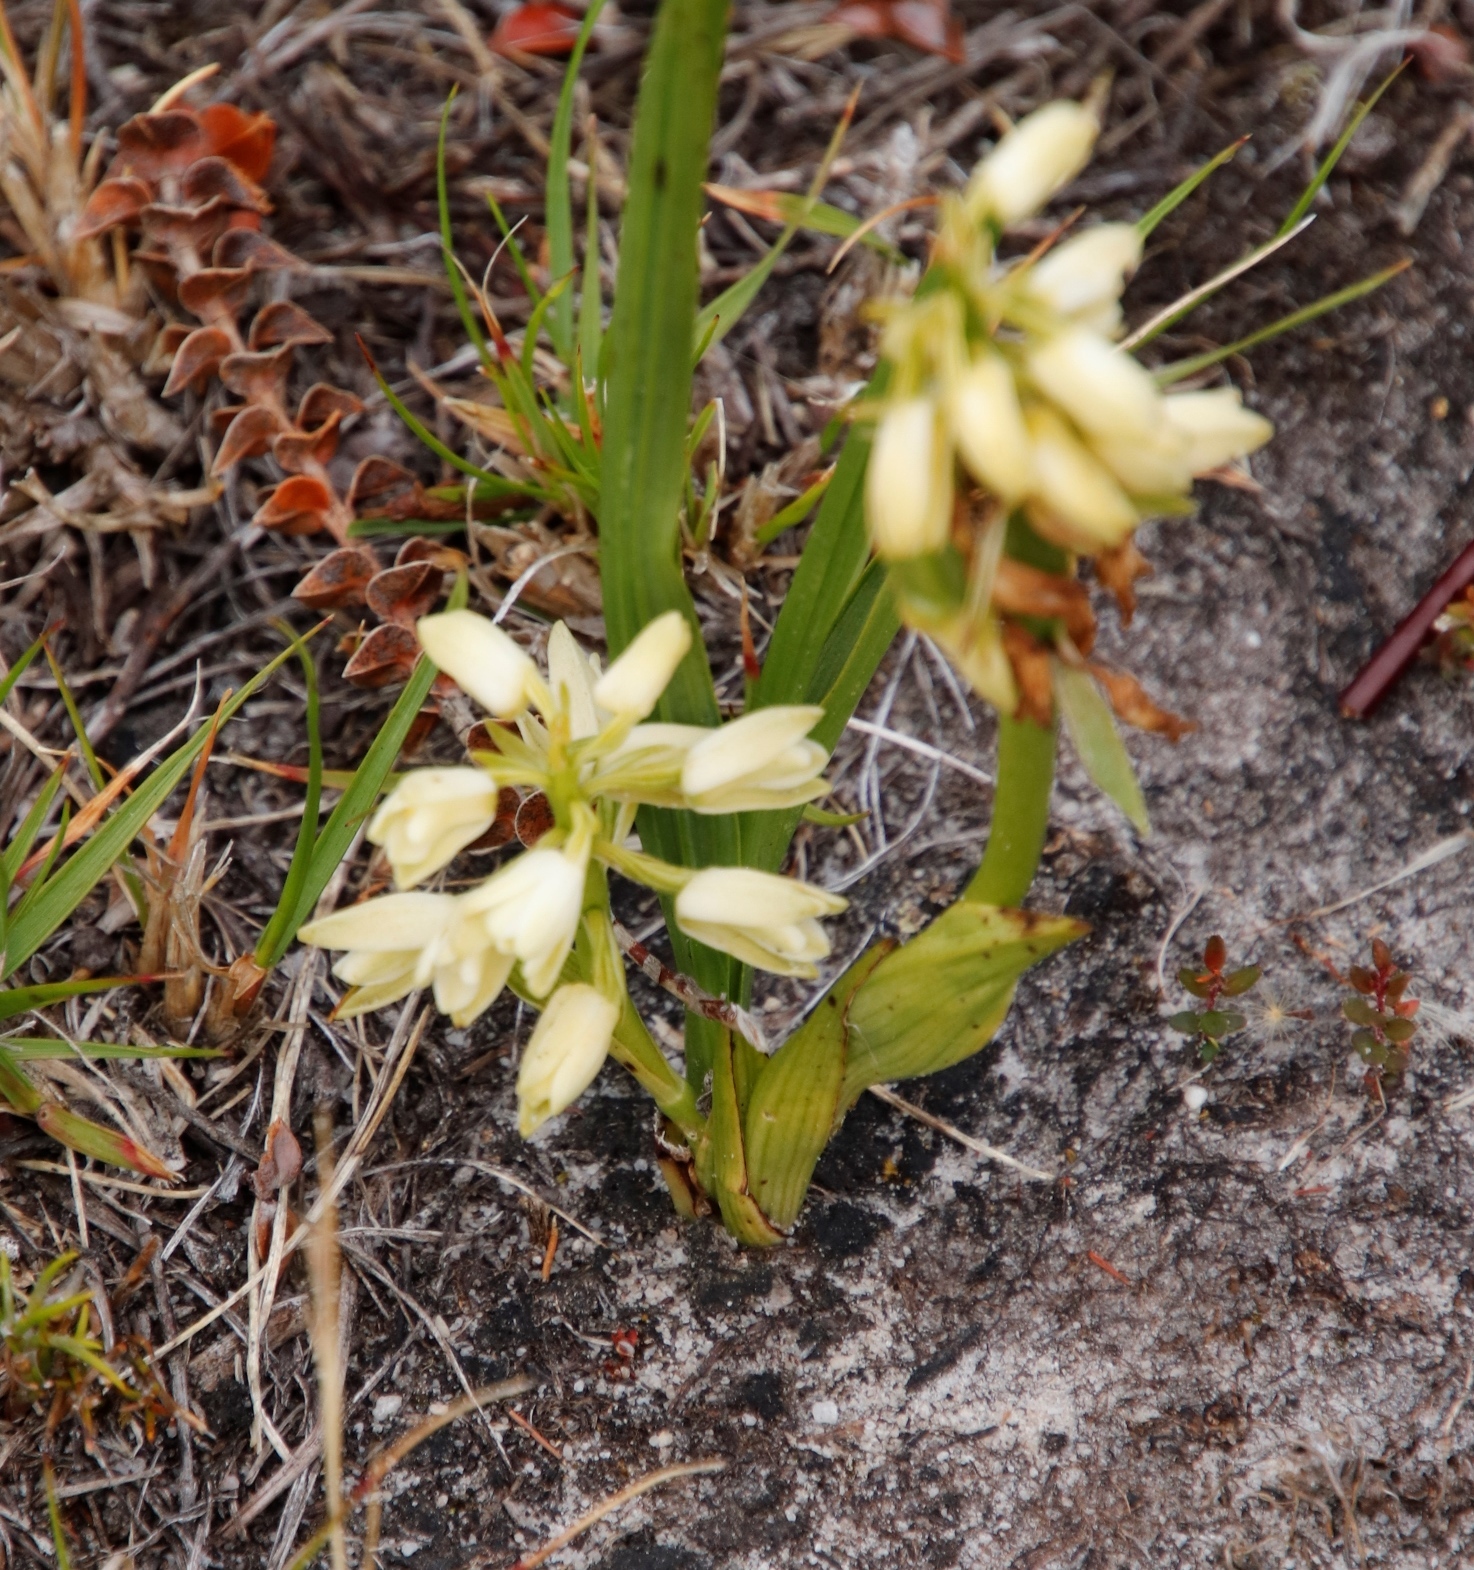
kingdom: Plantae
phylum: Tracheophyta
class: Liliopsida
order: Asparagales
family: Orchidaceae
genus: Eulophia
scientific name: Eulophia aculeata
